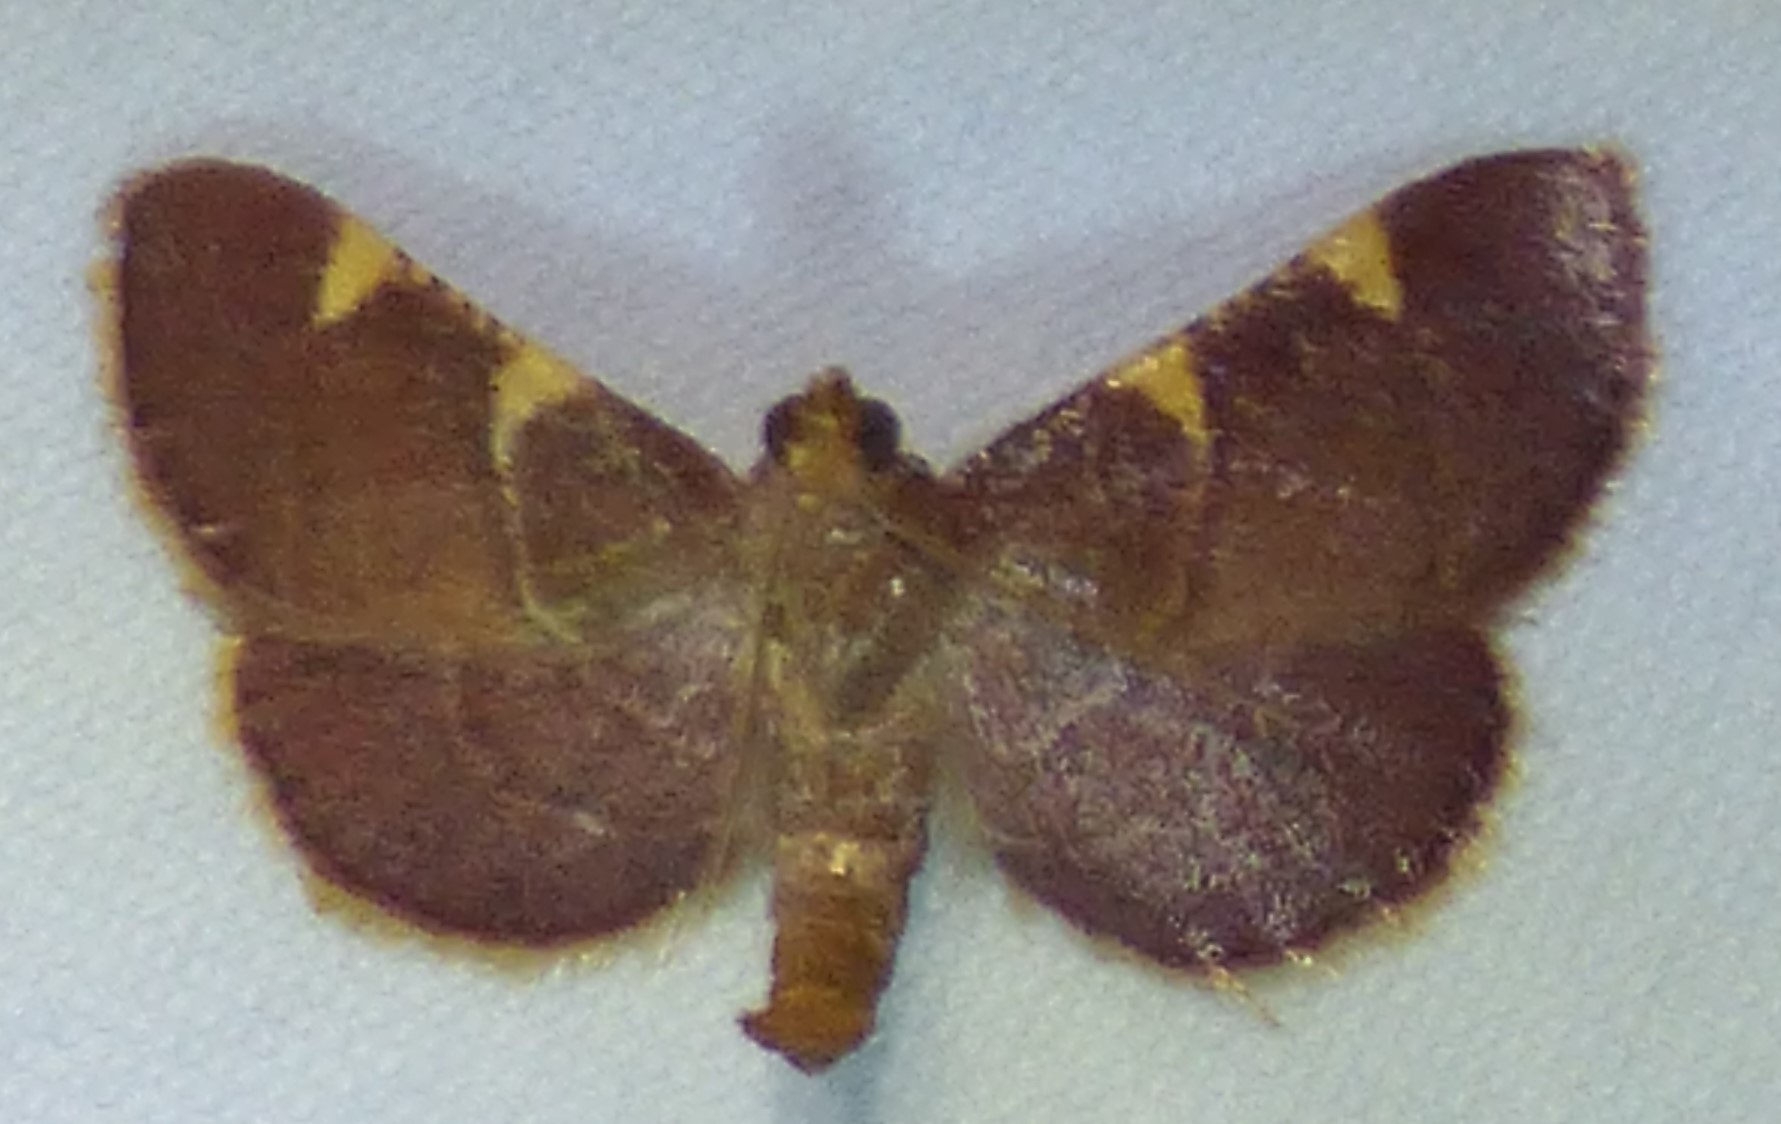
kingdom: Animalia
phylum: Arthropoda
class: Insecta
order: Lepidoptera
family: Pyralidae
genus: Hypsopygia
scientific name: Hypsopygia olinalis
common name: Yellow-fringed dolichomia moth
